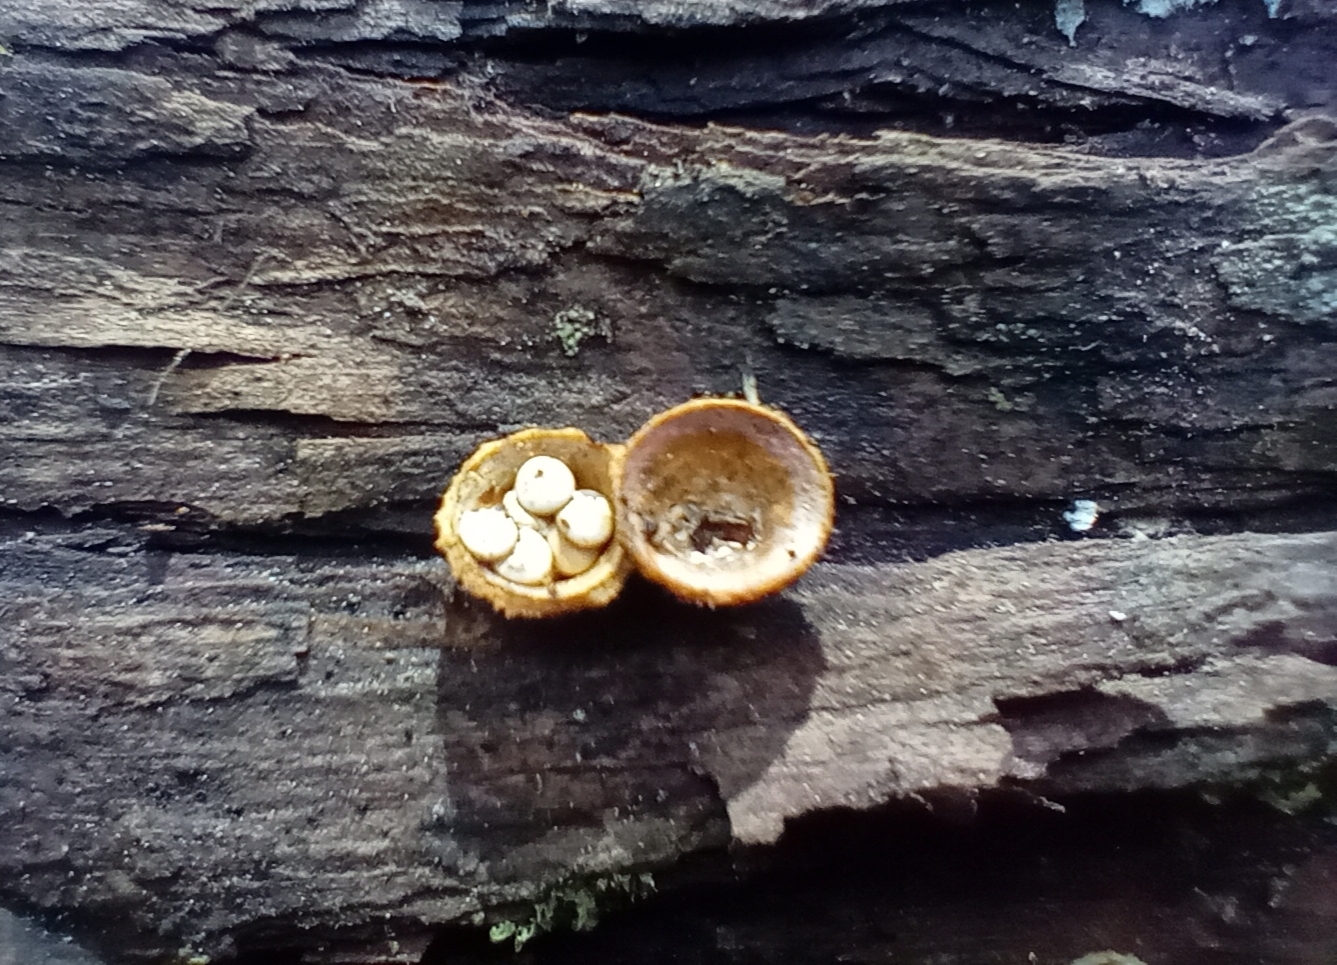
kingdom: Fungi
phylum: Basidiomycota
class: Agaricomycetes
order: Agaricales
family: Nidulariaceae
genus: Crucibulum
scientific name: Crucibulum simile
